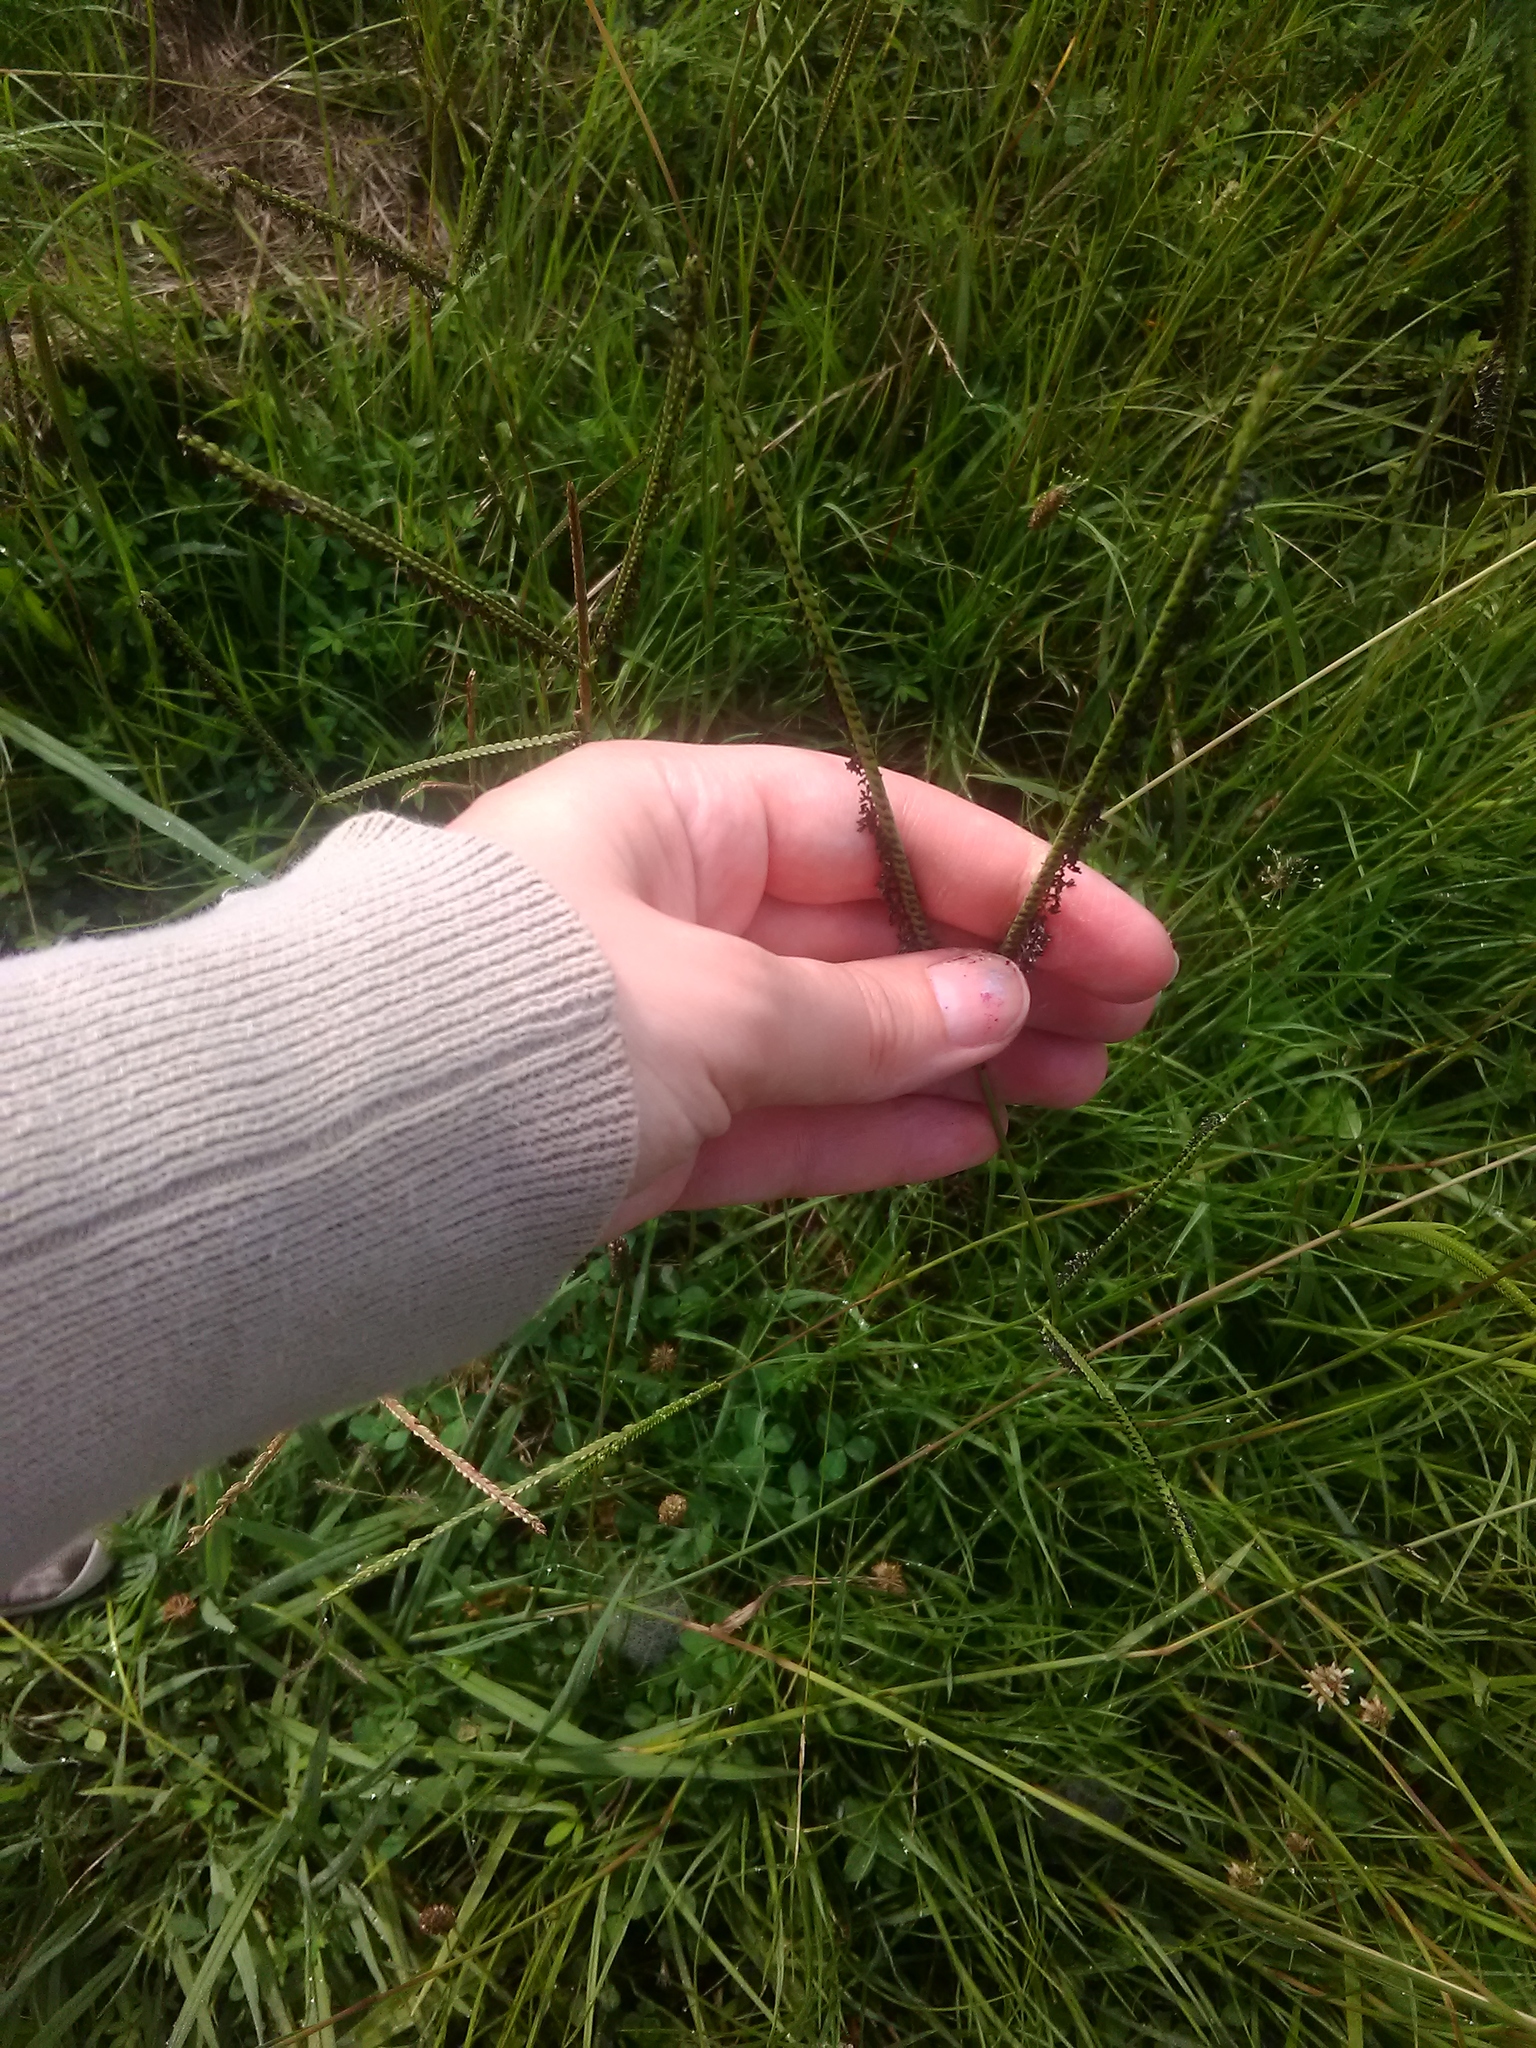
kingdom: Plantae
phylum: Tracheophyta
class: Liliopsida
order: Poales
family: Poaceae
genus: Paspalum
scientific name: Paspalum notatum
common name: Bahiagrass
